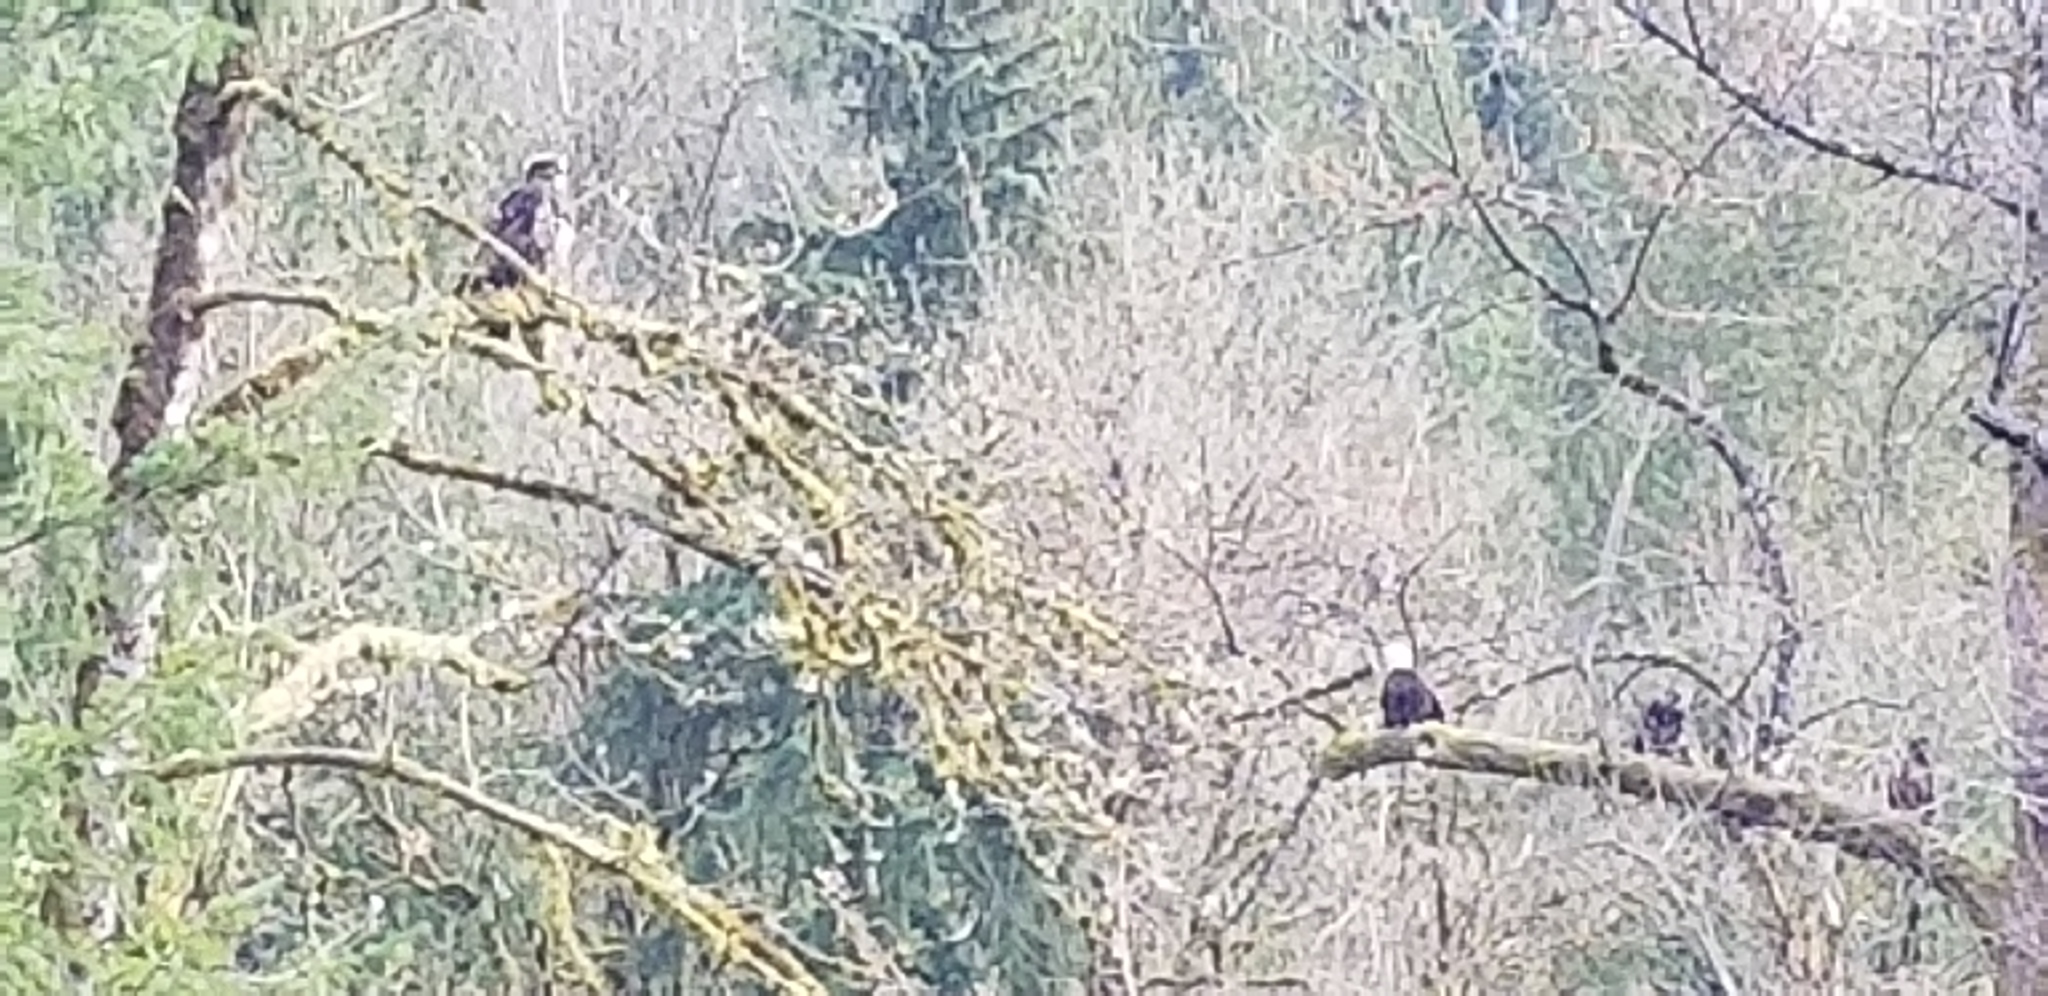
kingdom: Animalia
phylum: Chordata
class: Aves
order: Accipitriformes
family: Accipitridae
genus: Haliaeetus
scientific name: Haliaeetus leucocephalus
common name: Bald eagle
